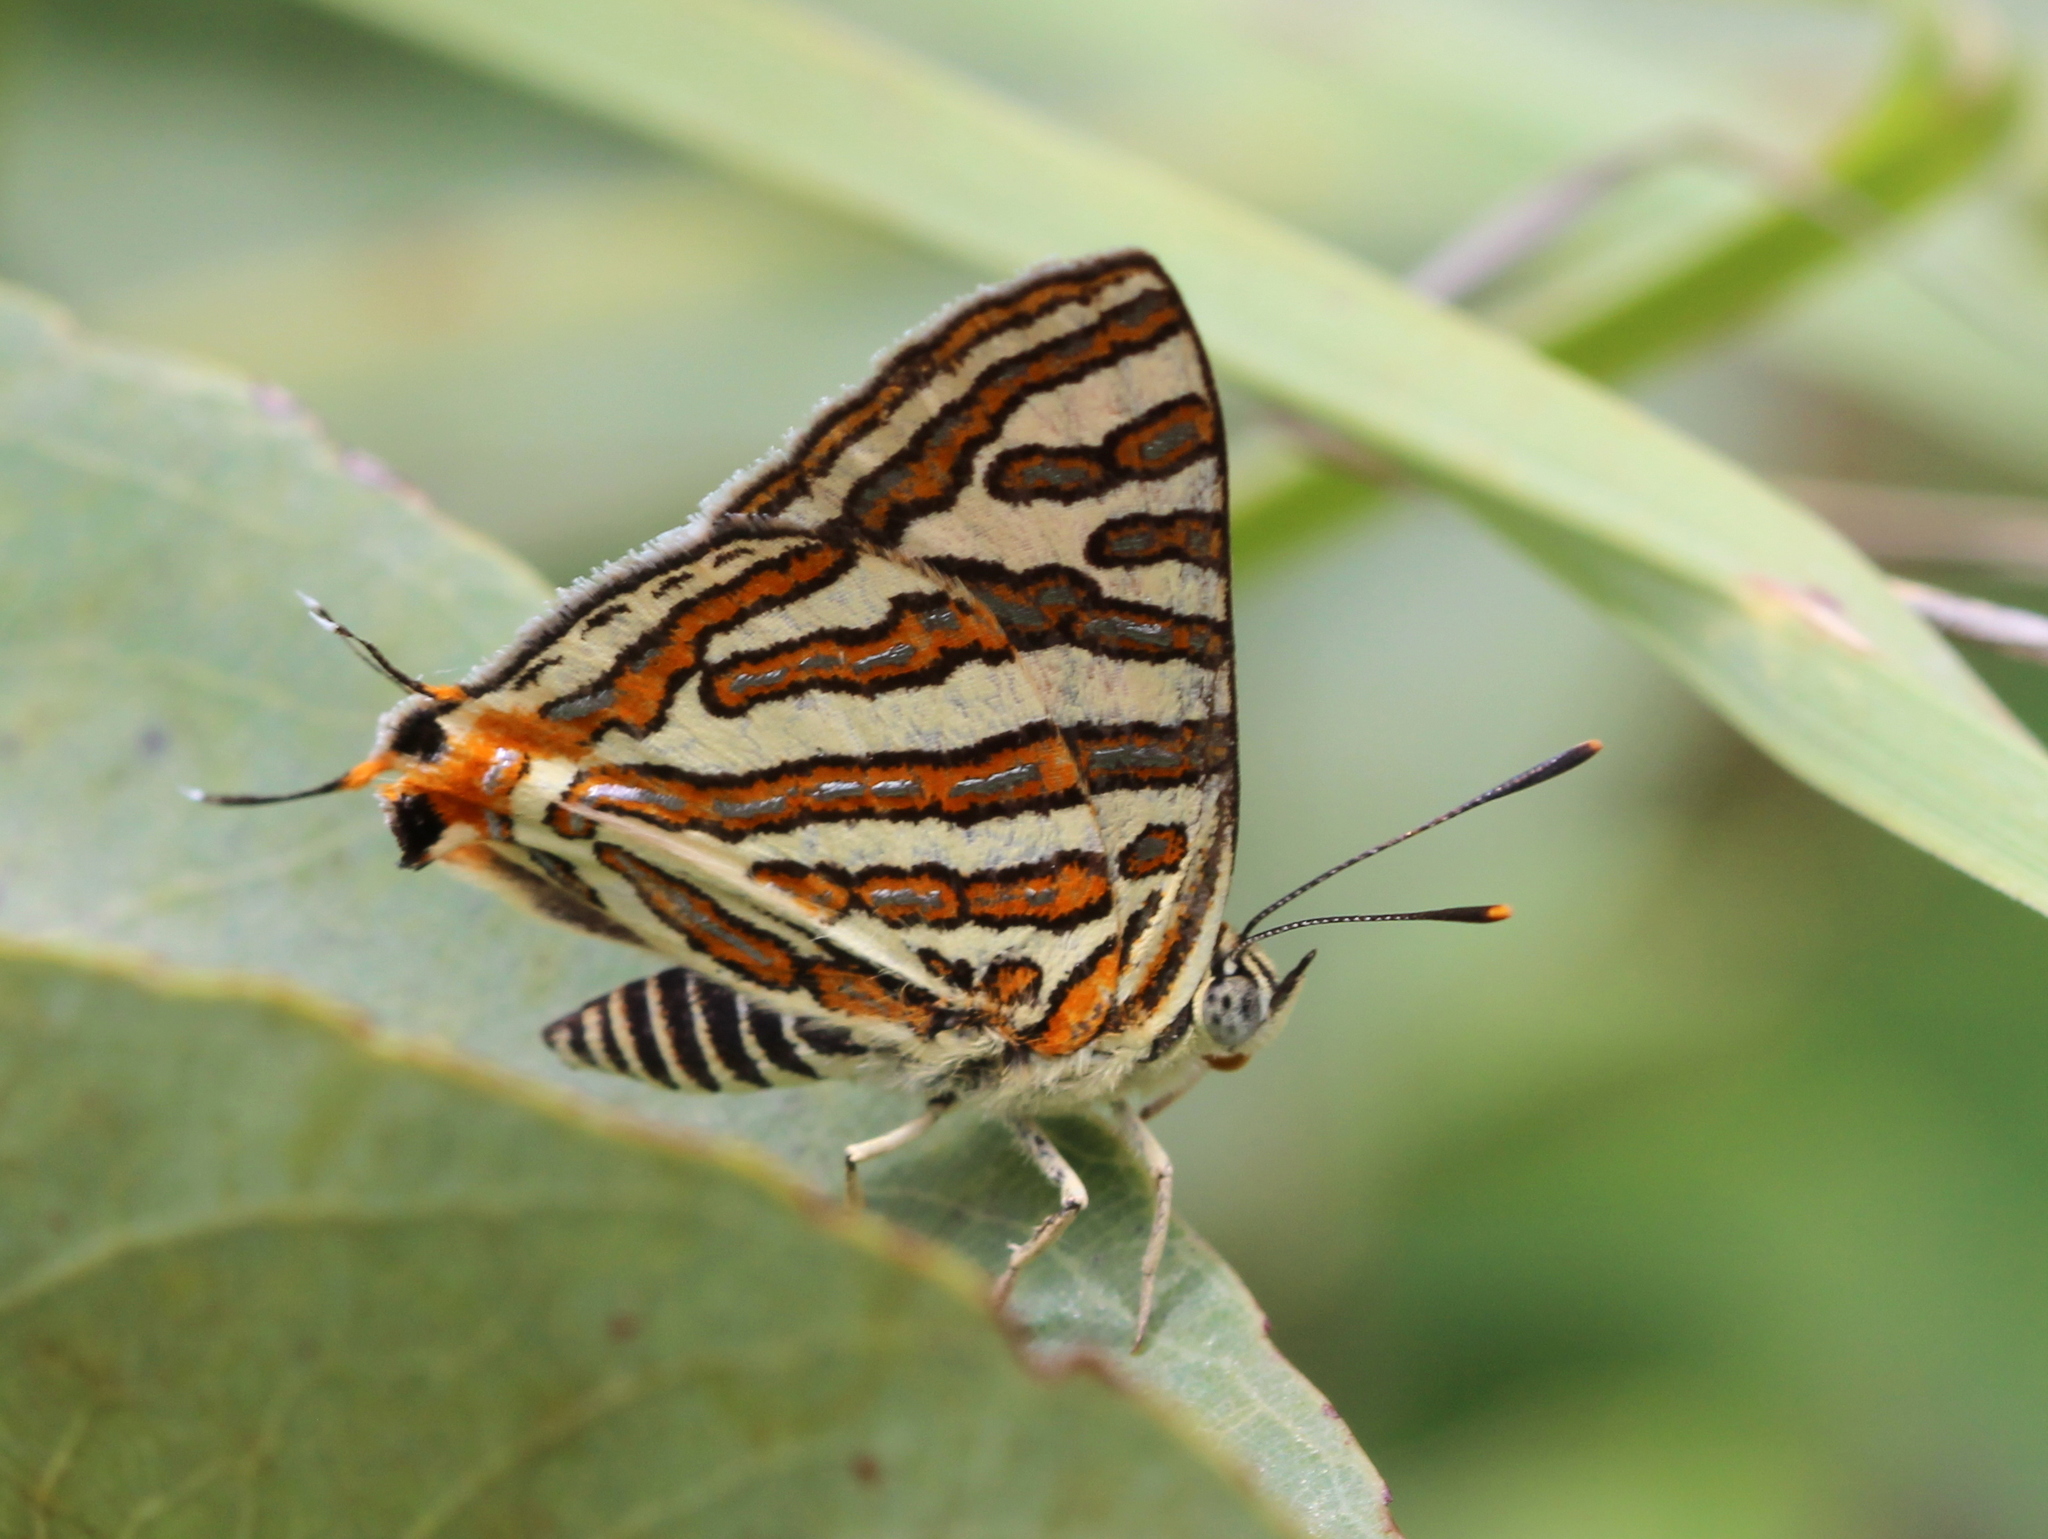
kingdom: Animalia
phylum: Arthropoda
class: Insecta
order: Lepidoptera
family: Lycaenidae
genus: Cigaritis
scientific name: Cigaritis vulcanus
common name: Common silverline
